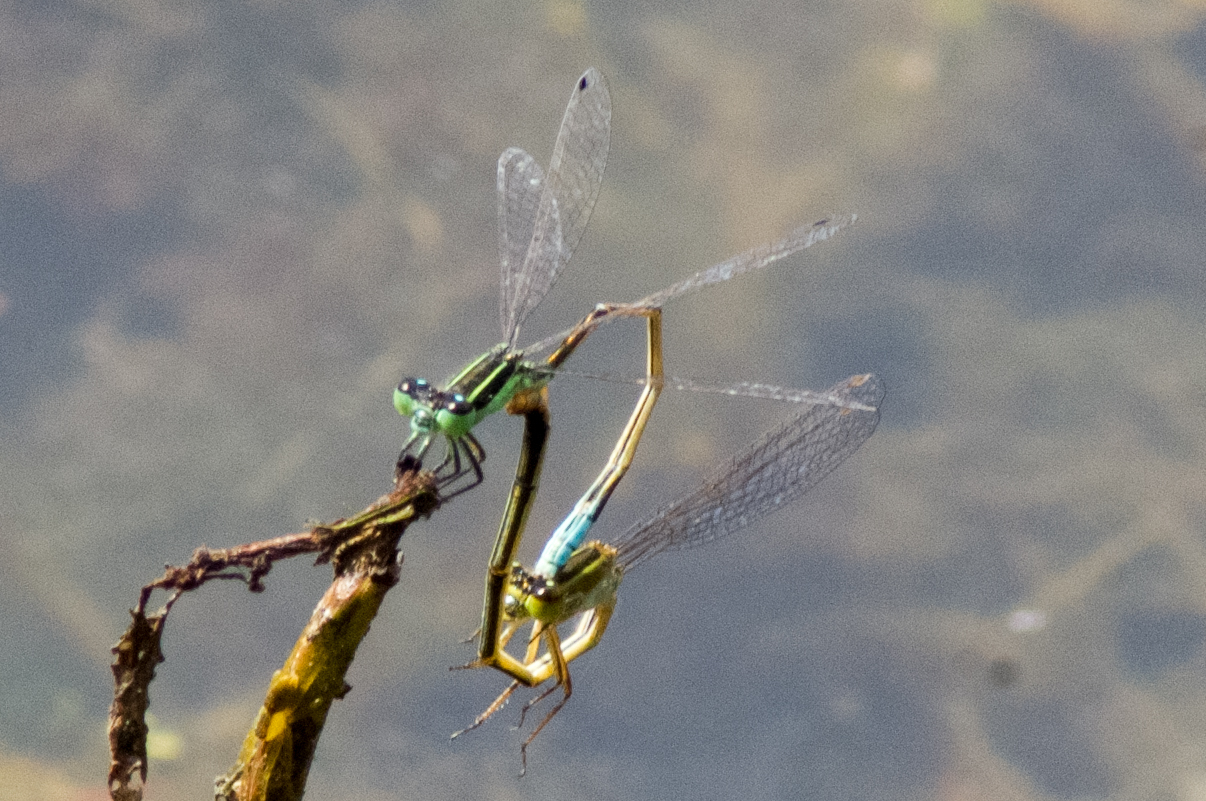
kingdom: Animalia
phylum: Arthropoda
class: Insecta
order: Odonata
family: Coenagrionidae
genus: Ischnura
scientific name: Ischnura ramburii
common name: Rambur's forktail
